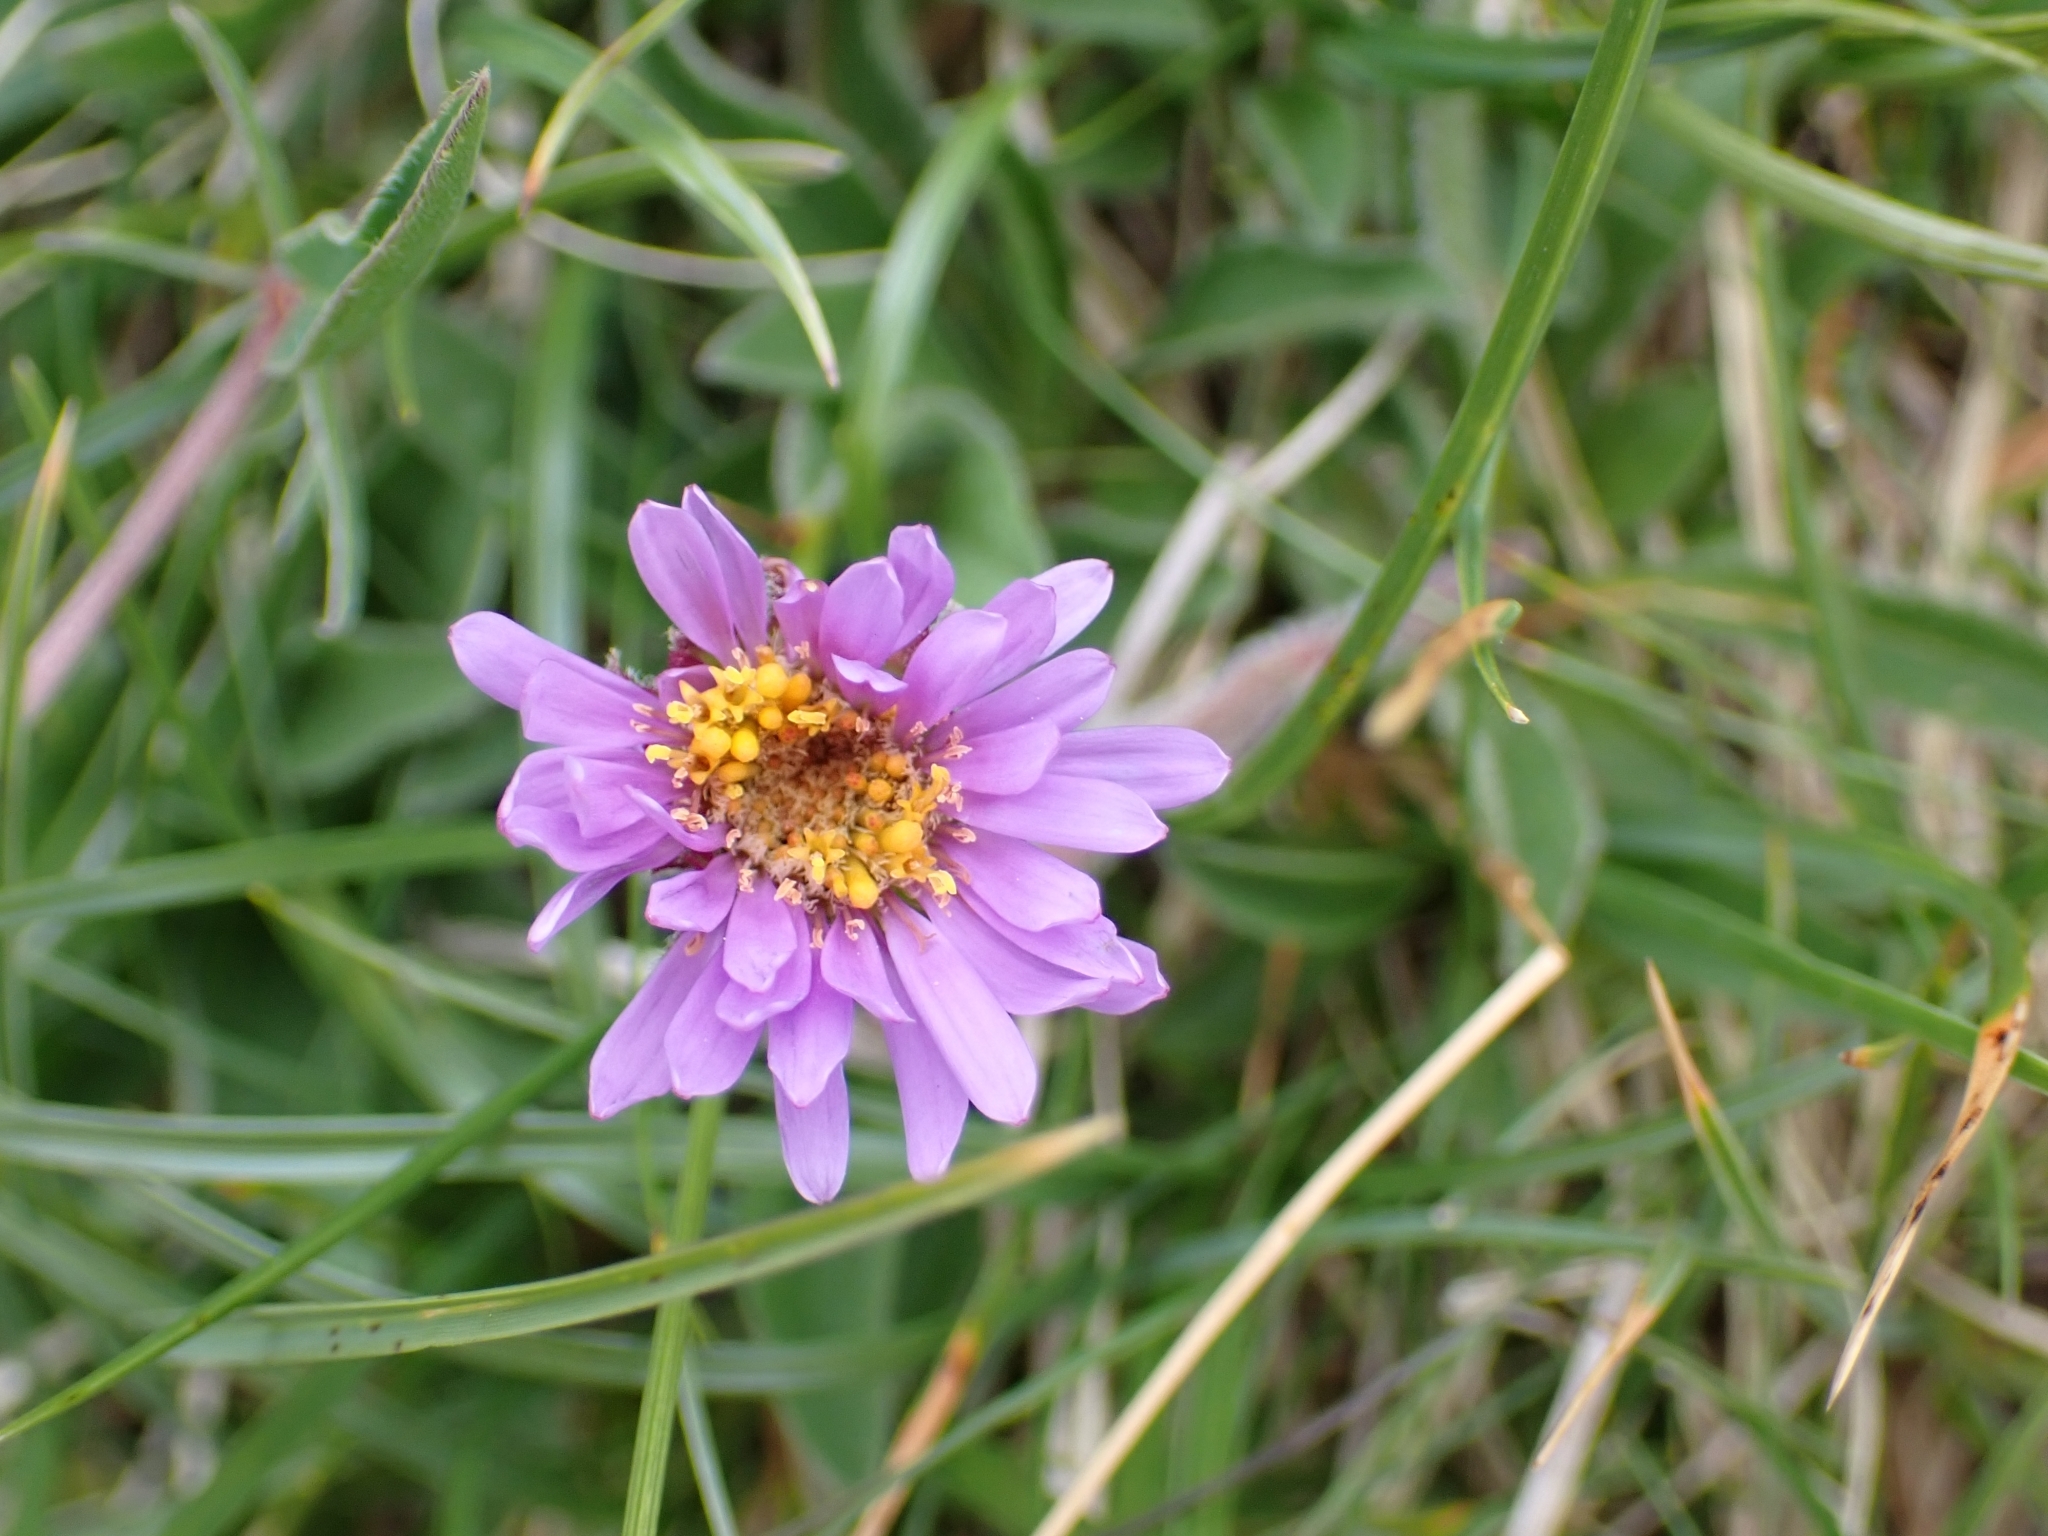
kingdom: Plantae
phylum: Tracheophyta
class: Magnoliopsida
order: Asterales
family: Asteraceae
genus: Aster
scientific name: Aster alpinus
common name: Alpine aster
